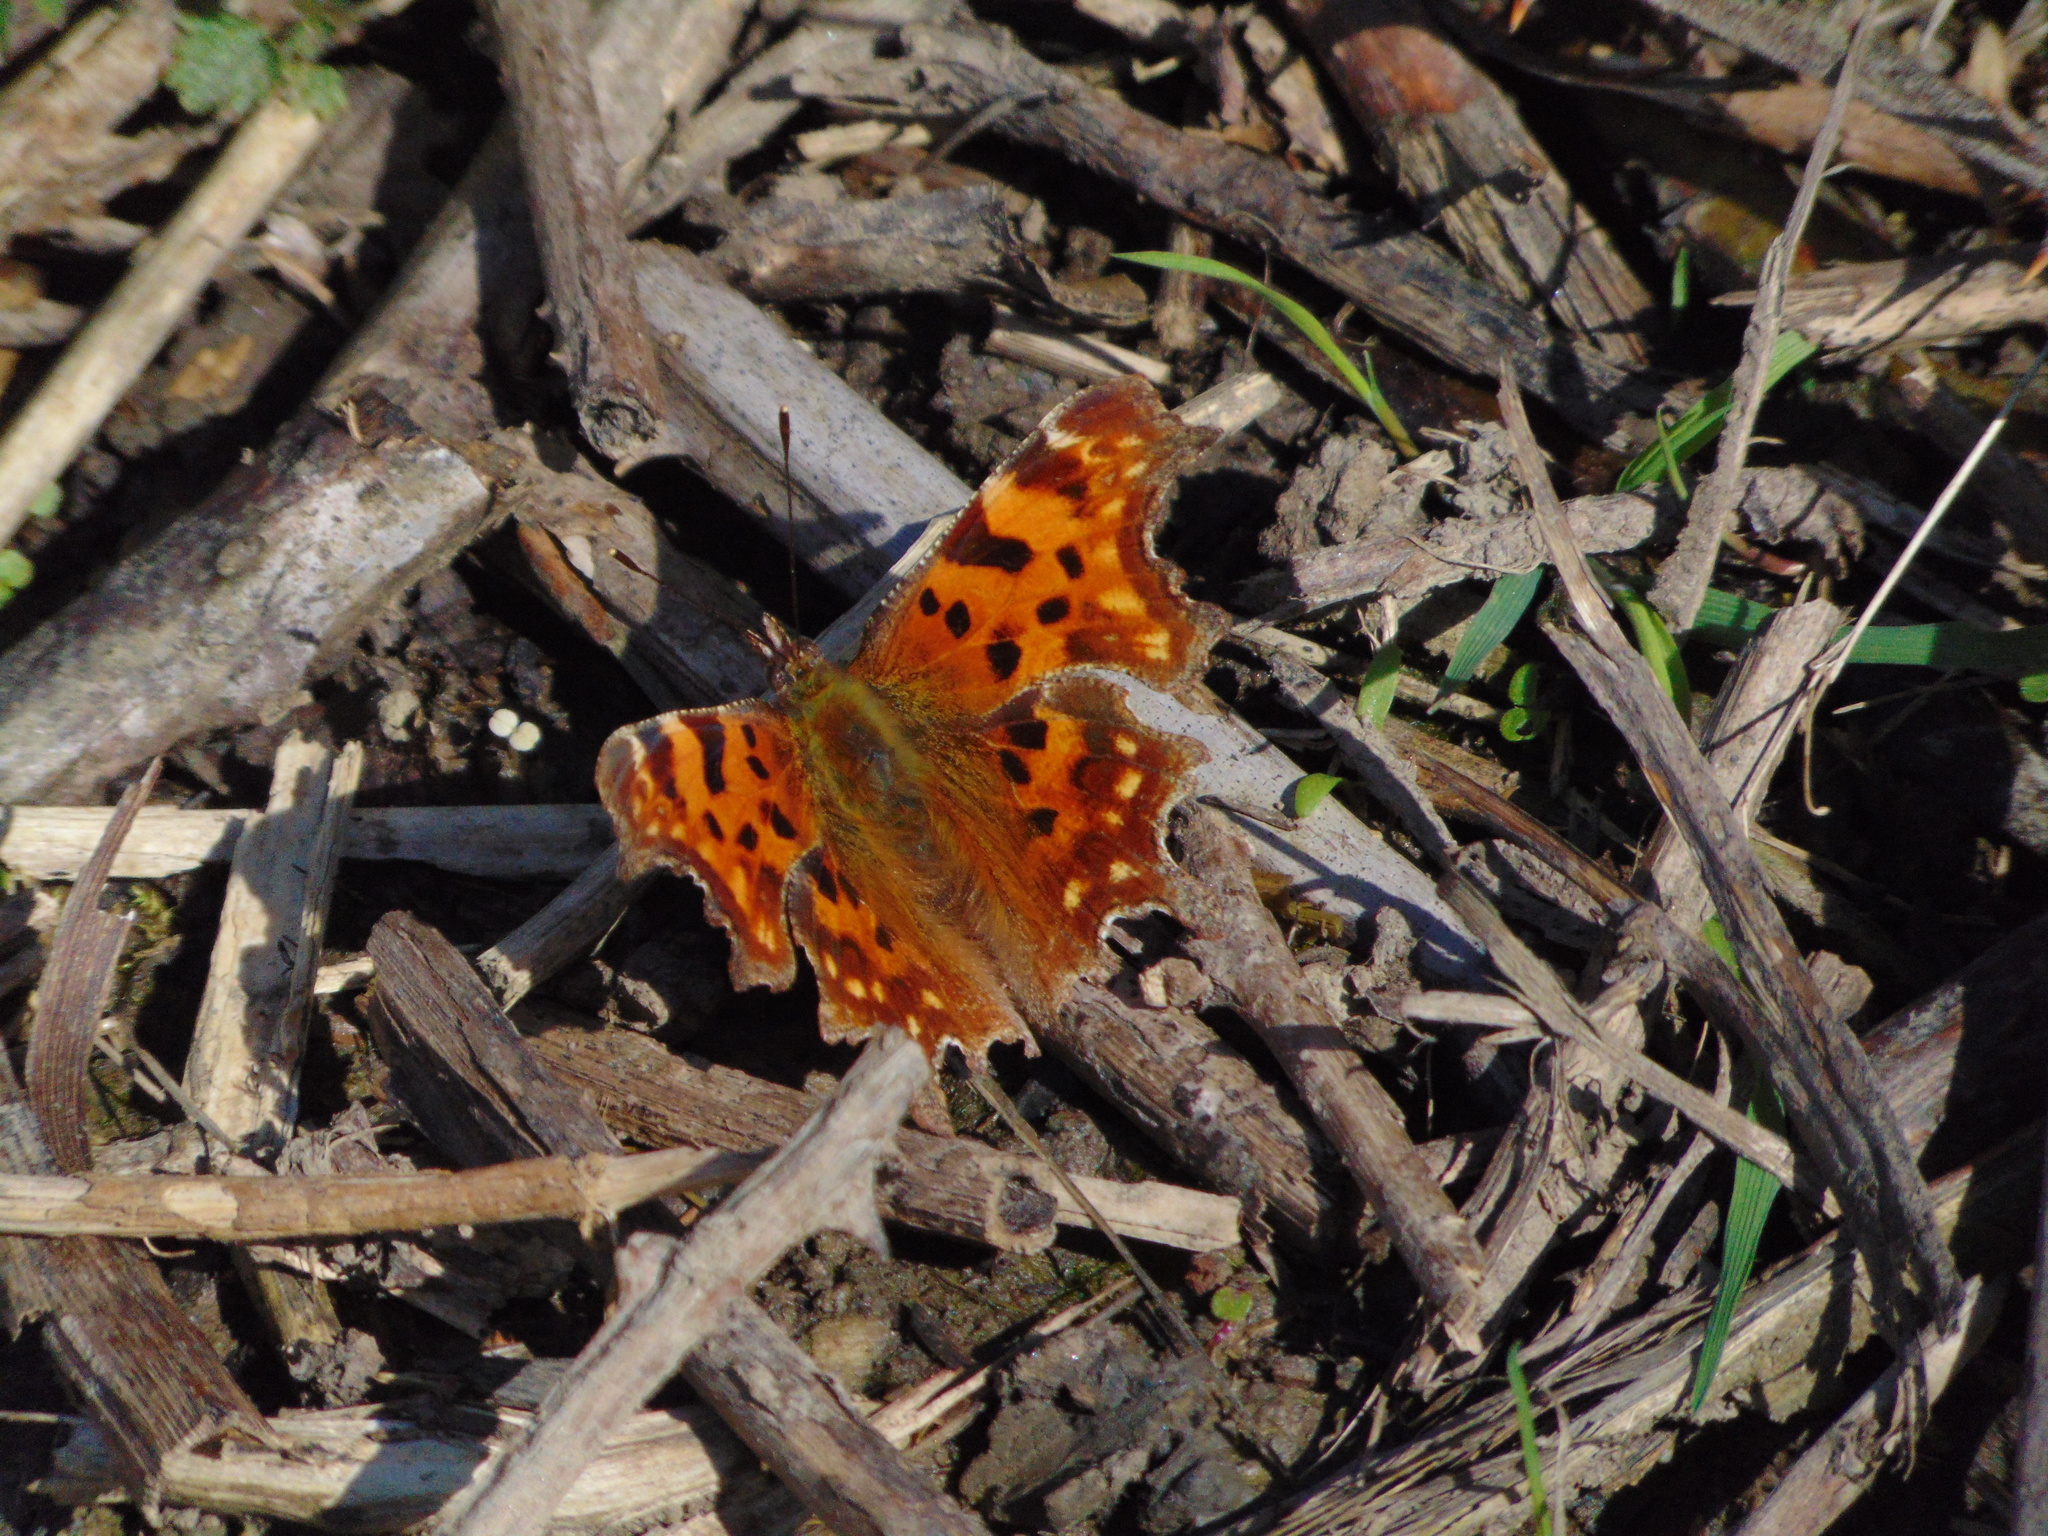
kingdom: Animalia
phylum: Arthropoda
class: Insecta
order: Lepidoptera
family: Nymphalidae
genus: Polygonia
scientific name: Polygonia c-album
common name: Comma
